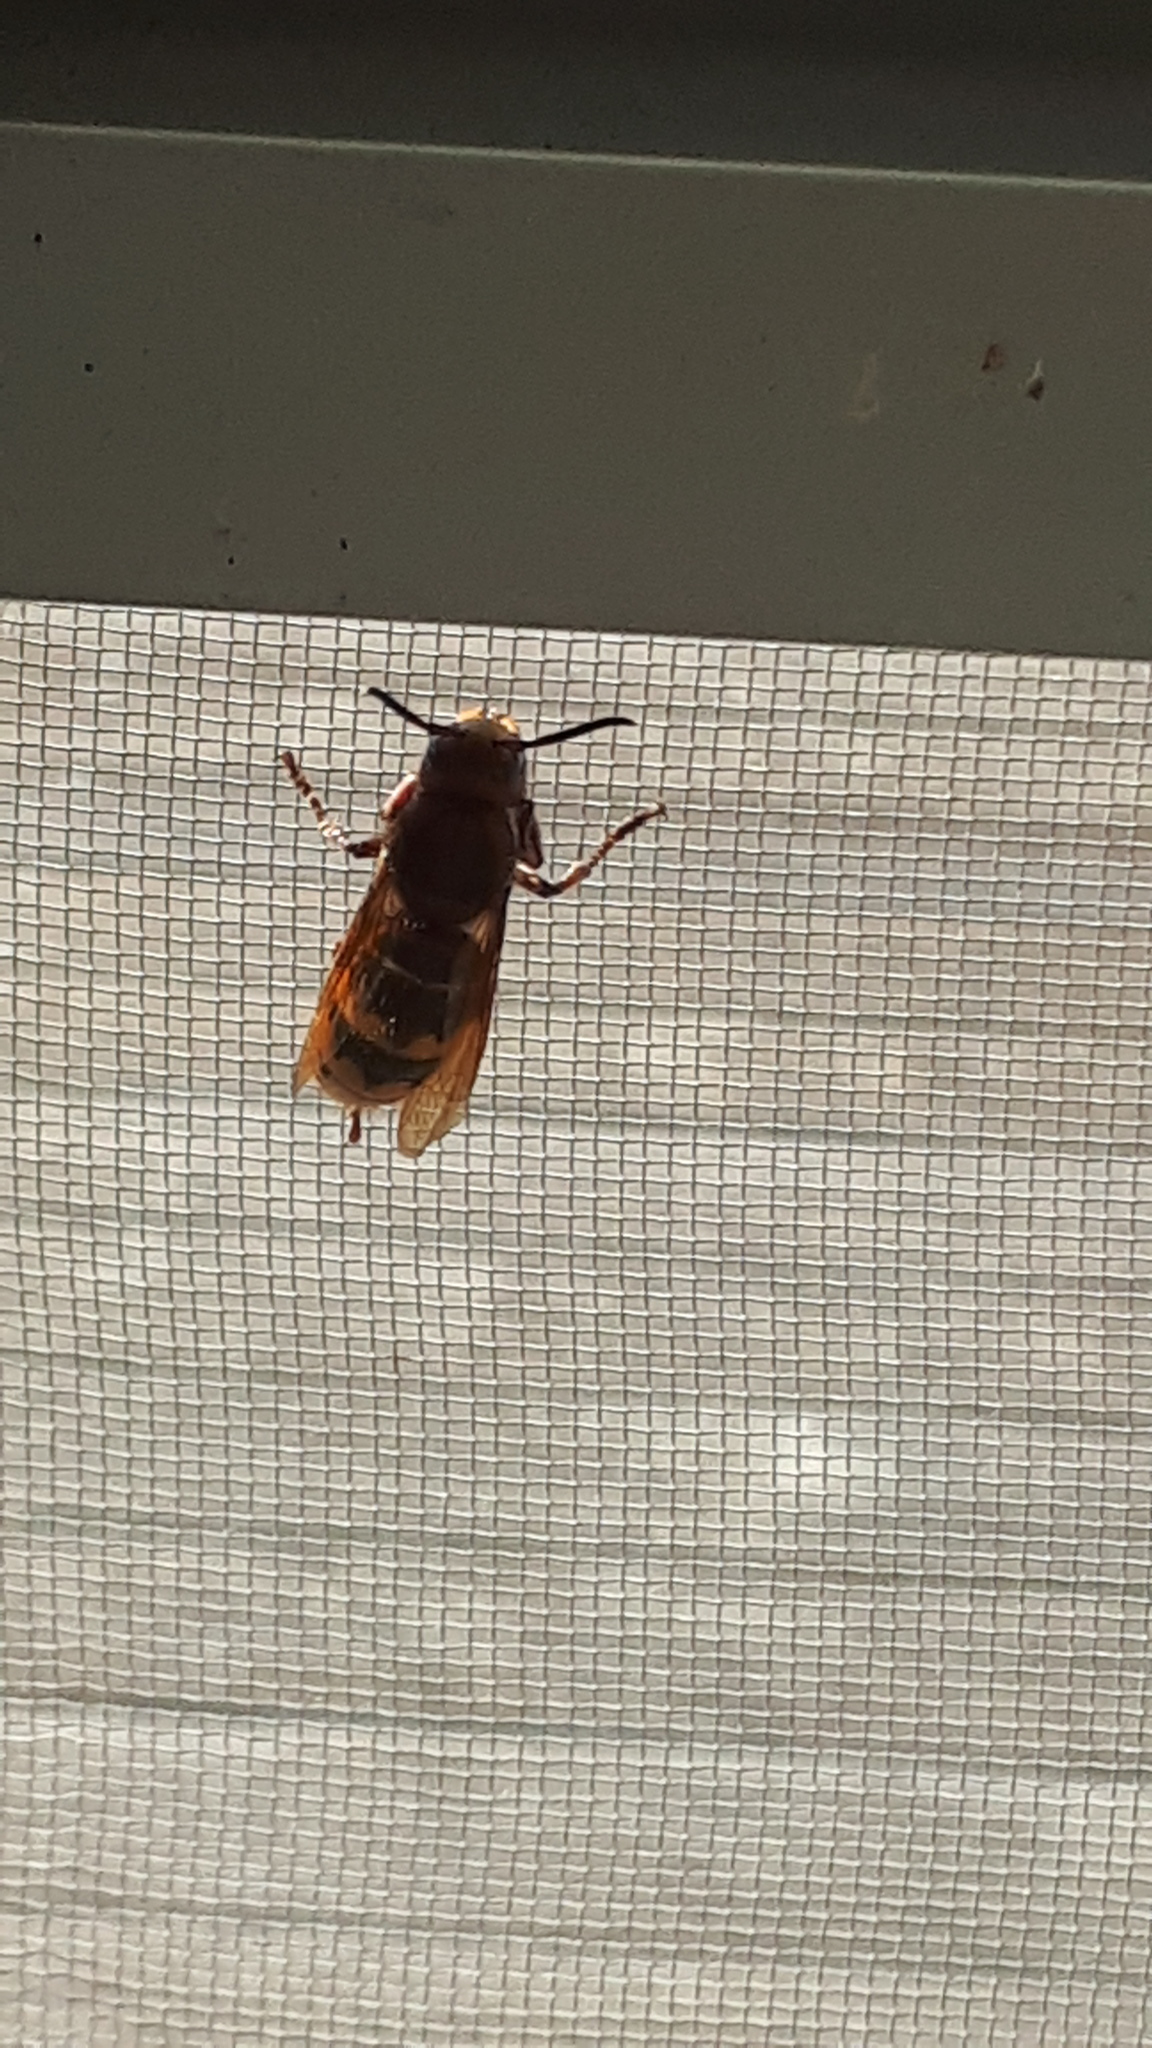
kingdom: Animalia
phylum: Arthropoda
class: Insecta
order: Hymenoptera
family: Vespidae
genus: Vespa
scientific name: Vespa crabro
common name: Hornet
